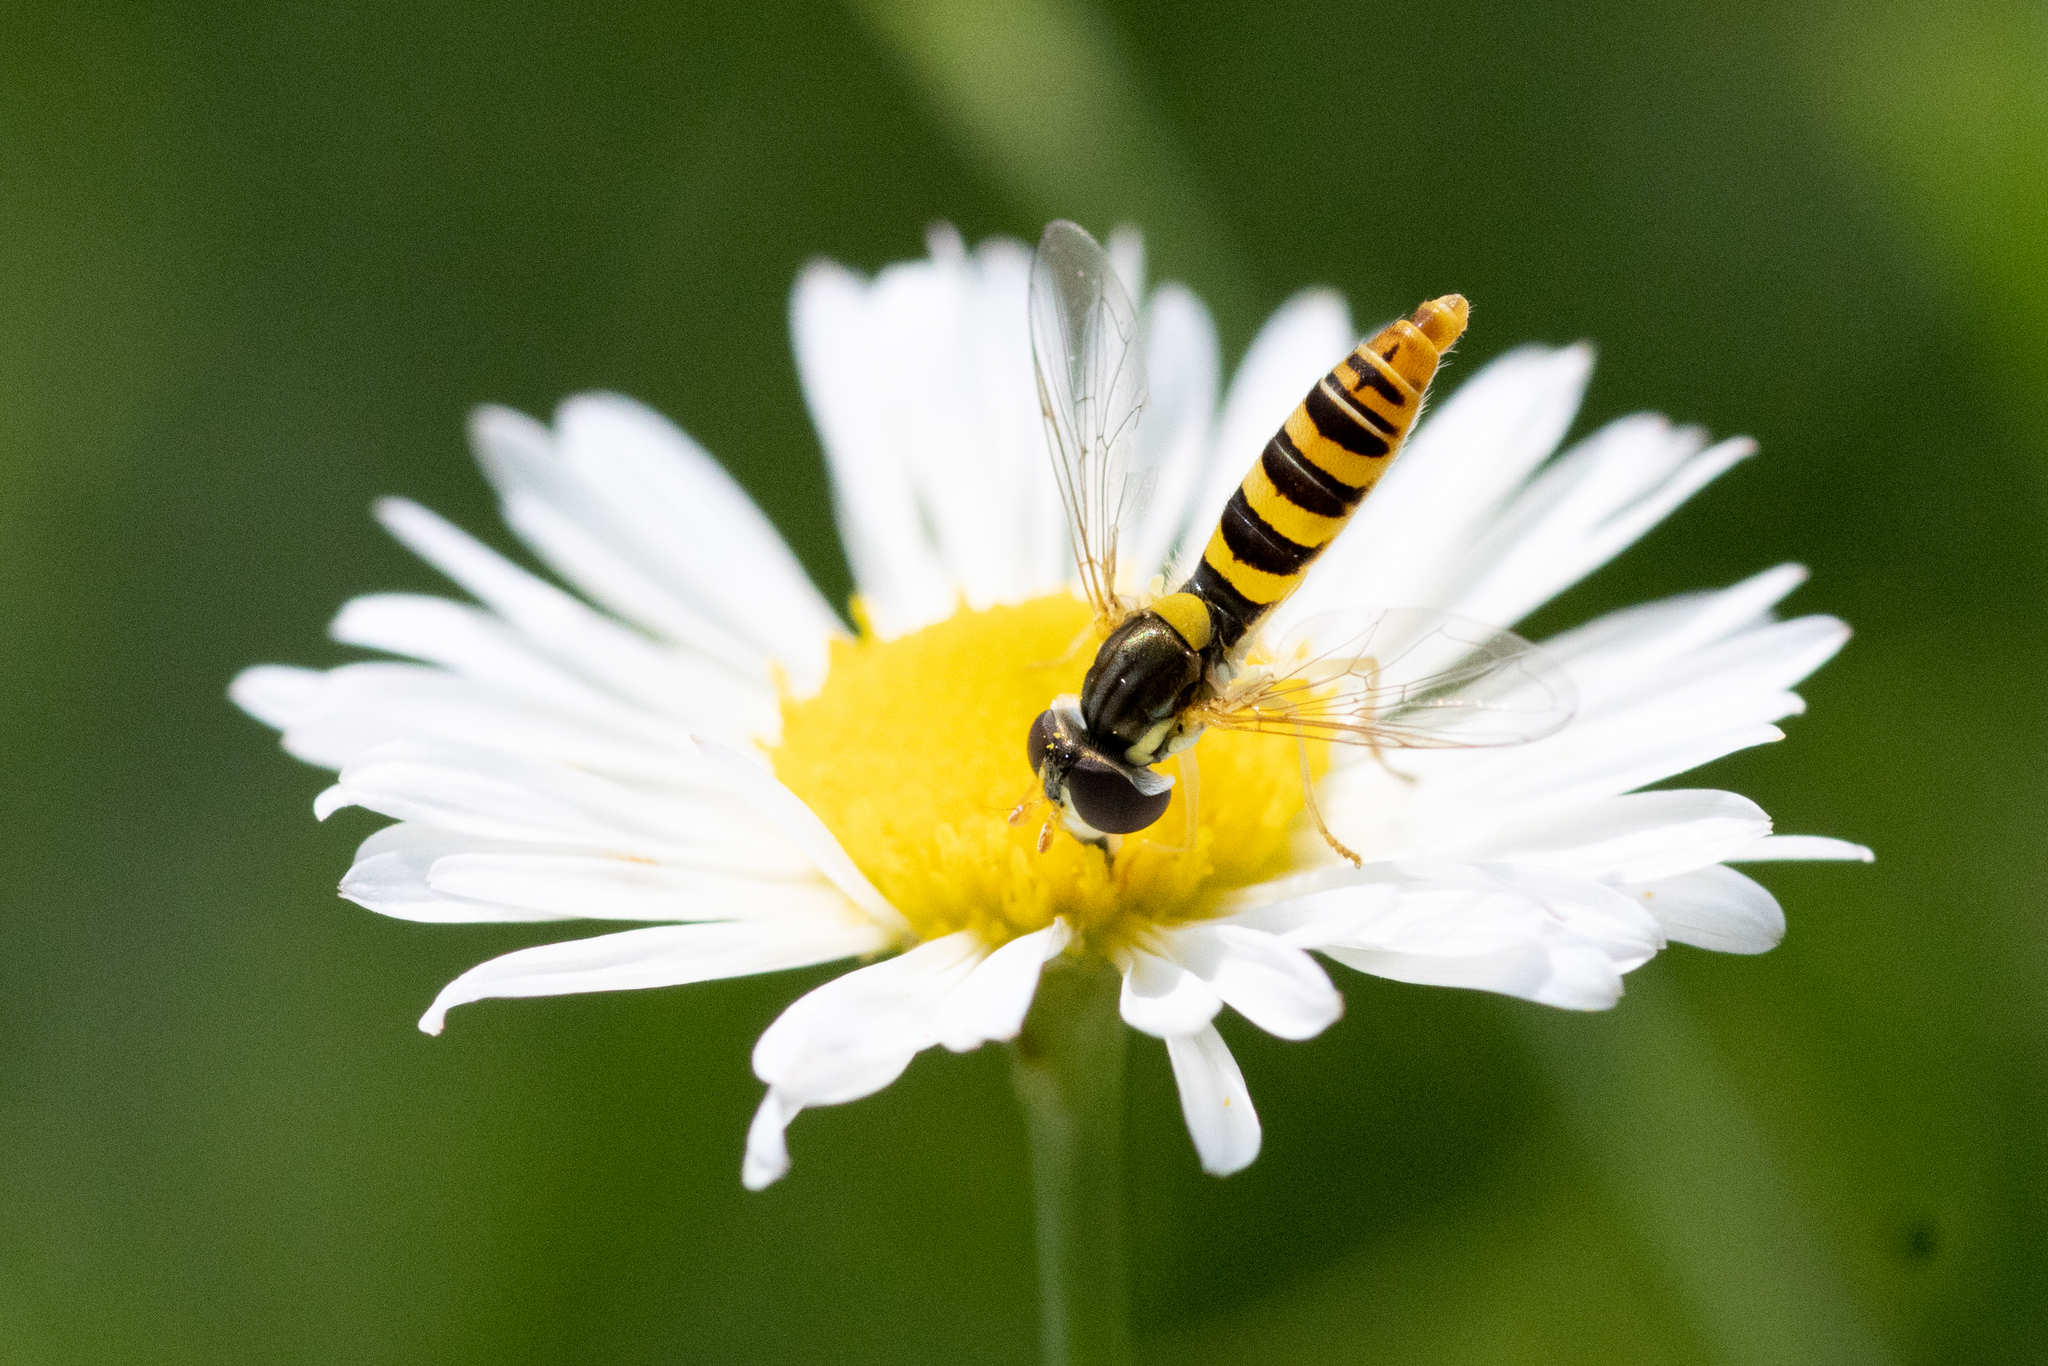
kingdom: Animalia
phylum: Arthropoda
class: Insecta
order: Diptera
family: Syrphidae
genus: Sphaerophoria
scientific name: Sphaerophoria contigua
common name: Tufted globetail
